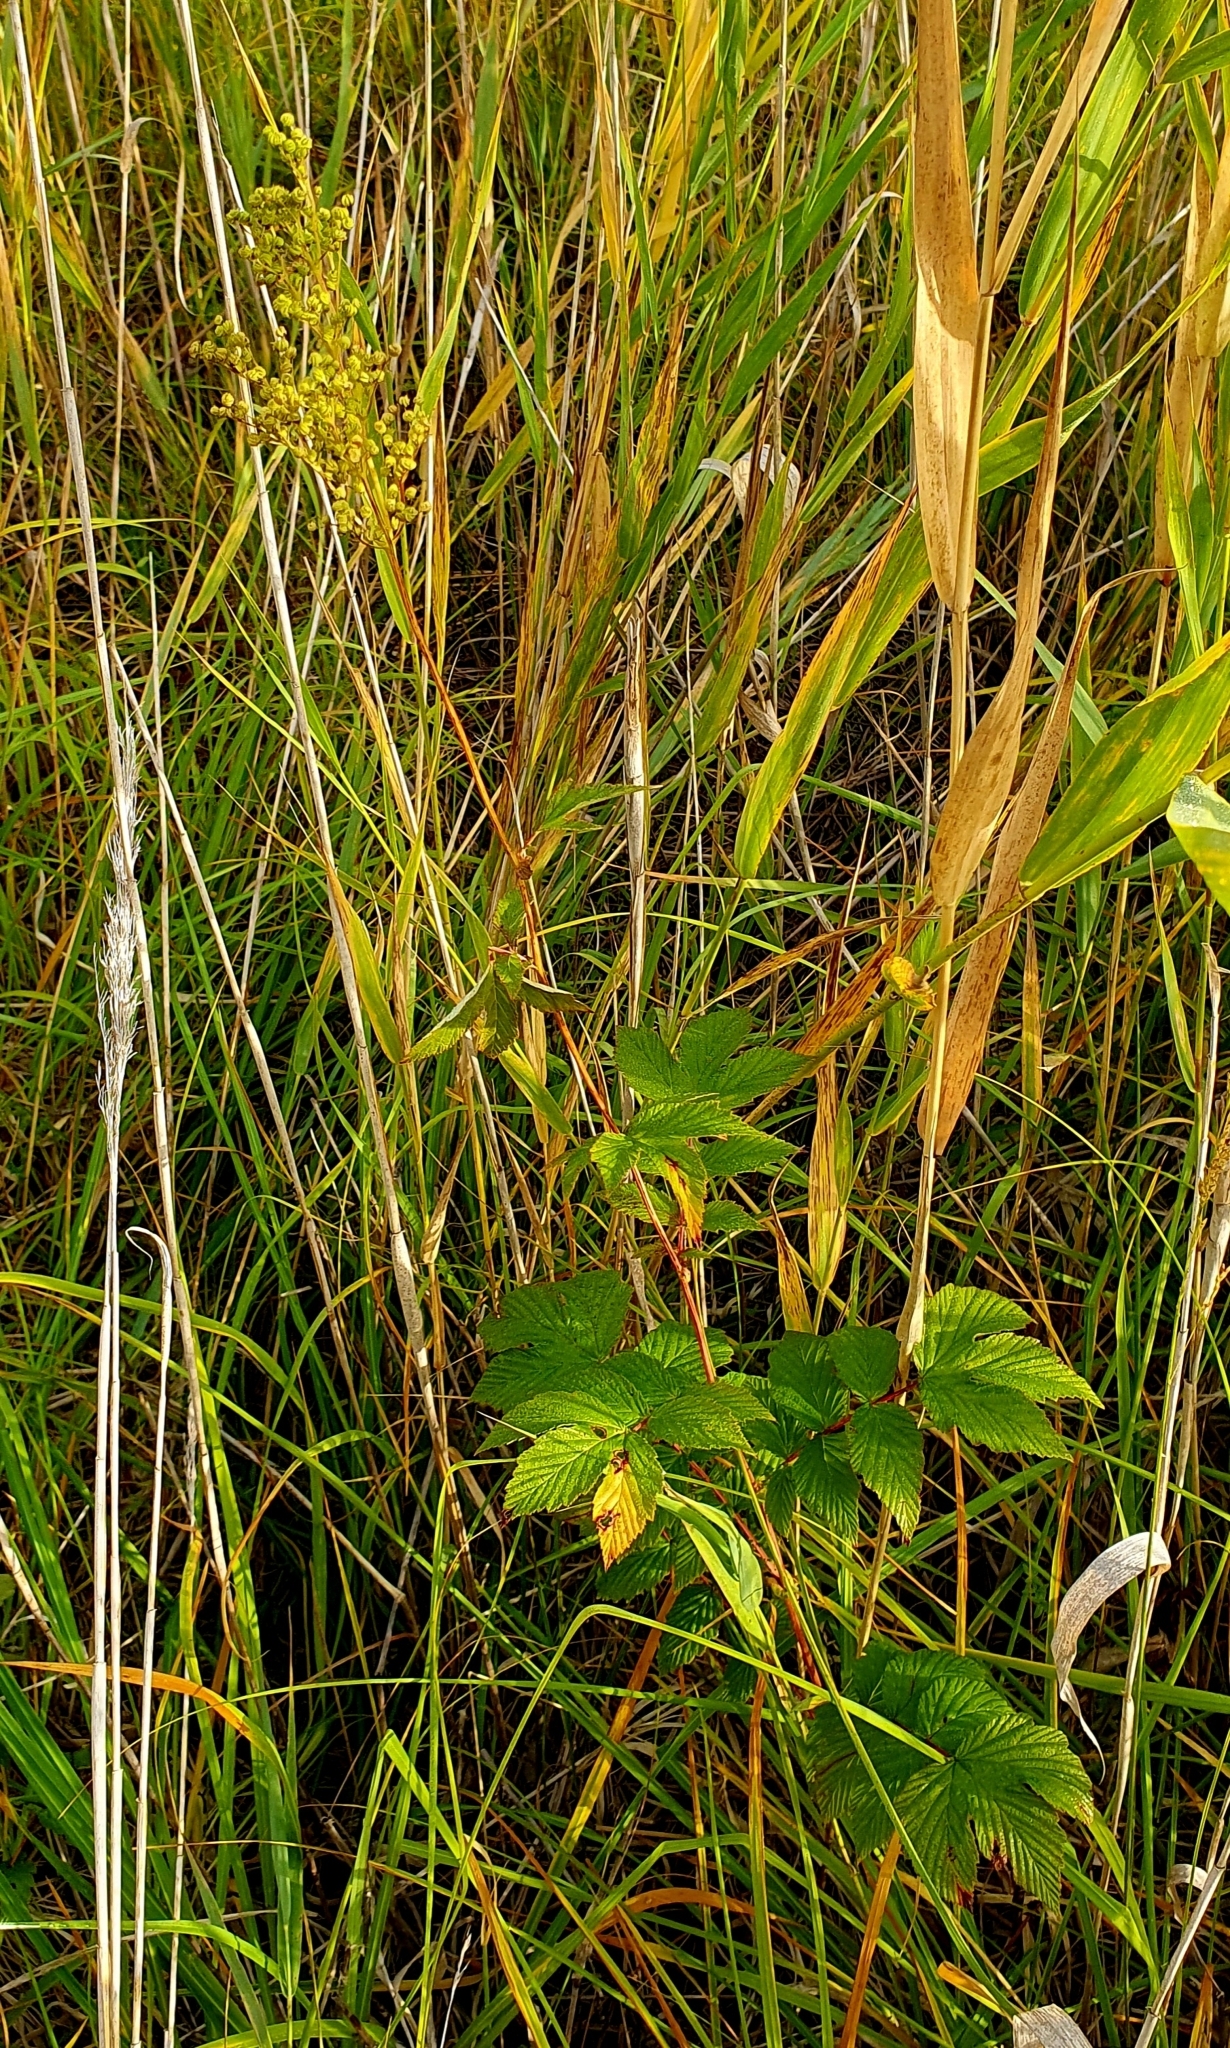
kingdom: Plantae
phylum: Tracheophyta
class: Magnoliopsida
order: Rosales
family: Rosaceae
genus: Filipendula
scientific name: Filipendula ulmaria
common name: Meadowsweet
